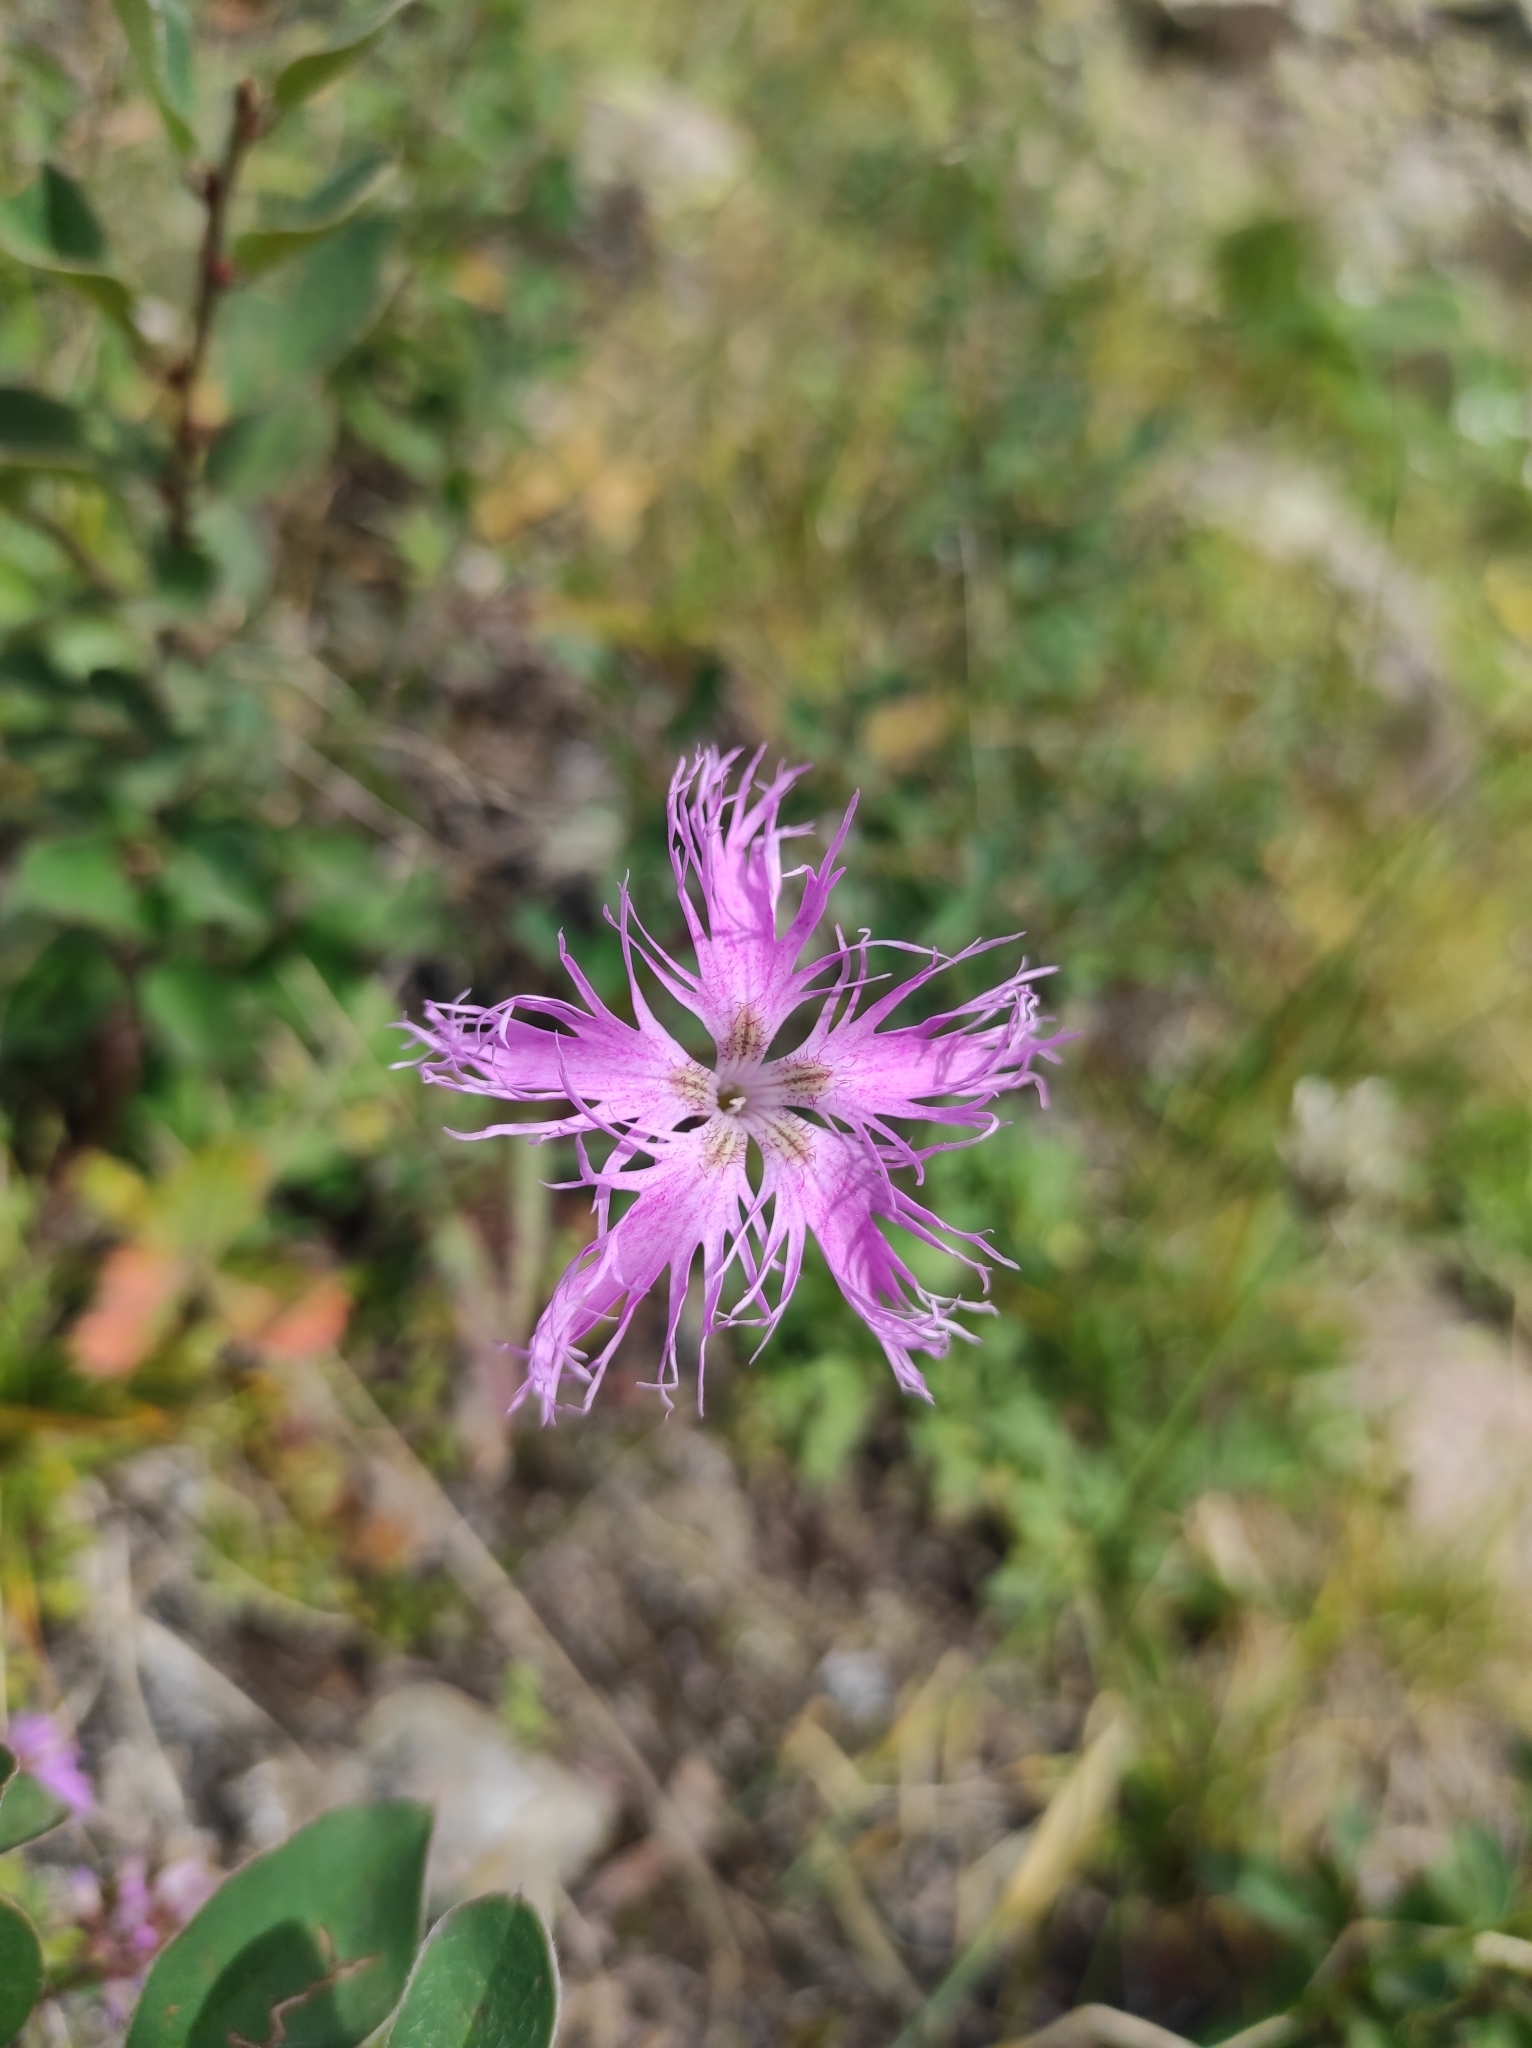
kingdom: Plantae
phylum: Tracheophyta
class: Magnoliopsida
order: Caryophyllales
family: Caryophyllaceae
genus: Dianthus
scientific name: Dianthus superbus
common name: Fringed pink
